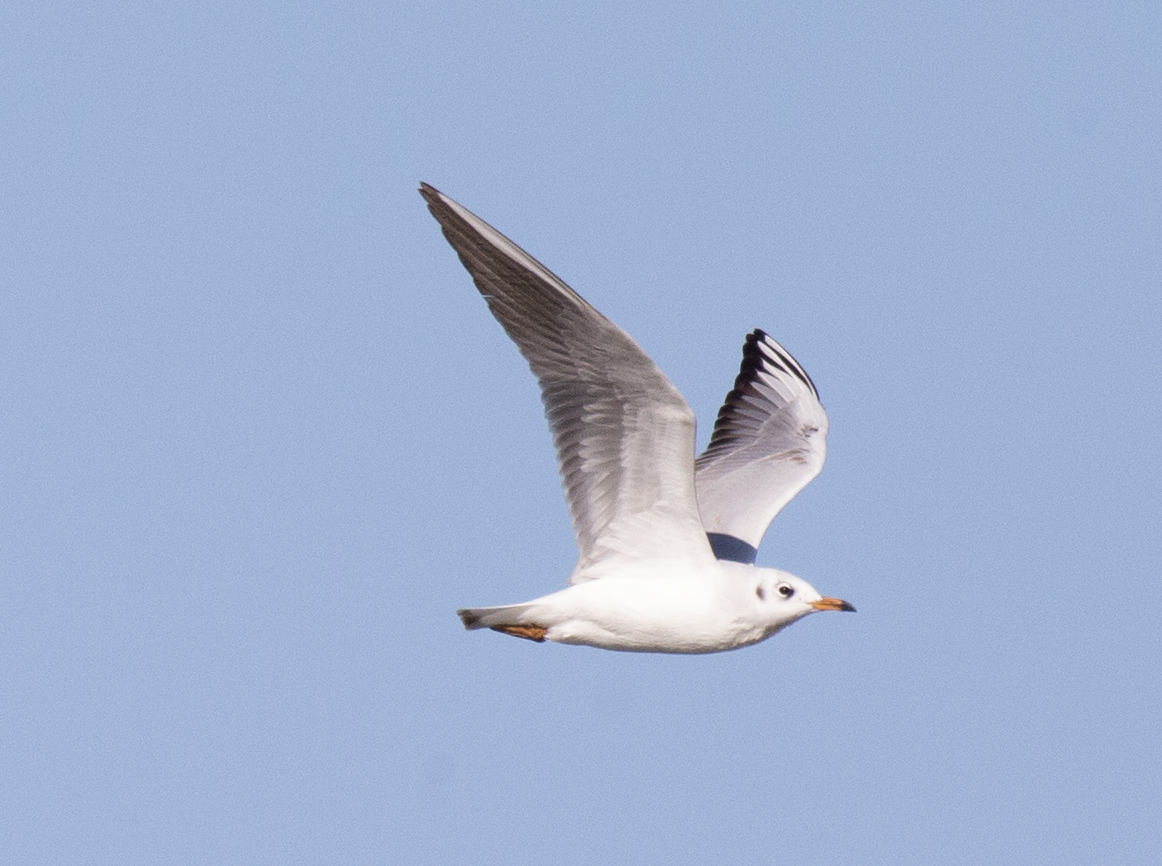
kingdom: Animalia
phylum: Chordata
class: Aves
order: Charadriiformes
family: Laridae
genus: Chroicocephalus
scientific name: Chroicocephalus ridibundus
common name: Black-headed gull
